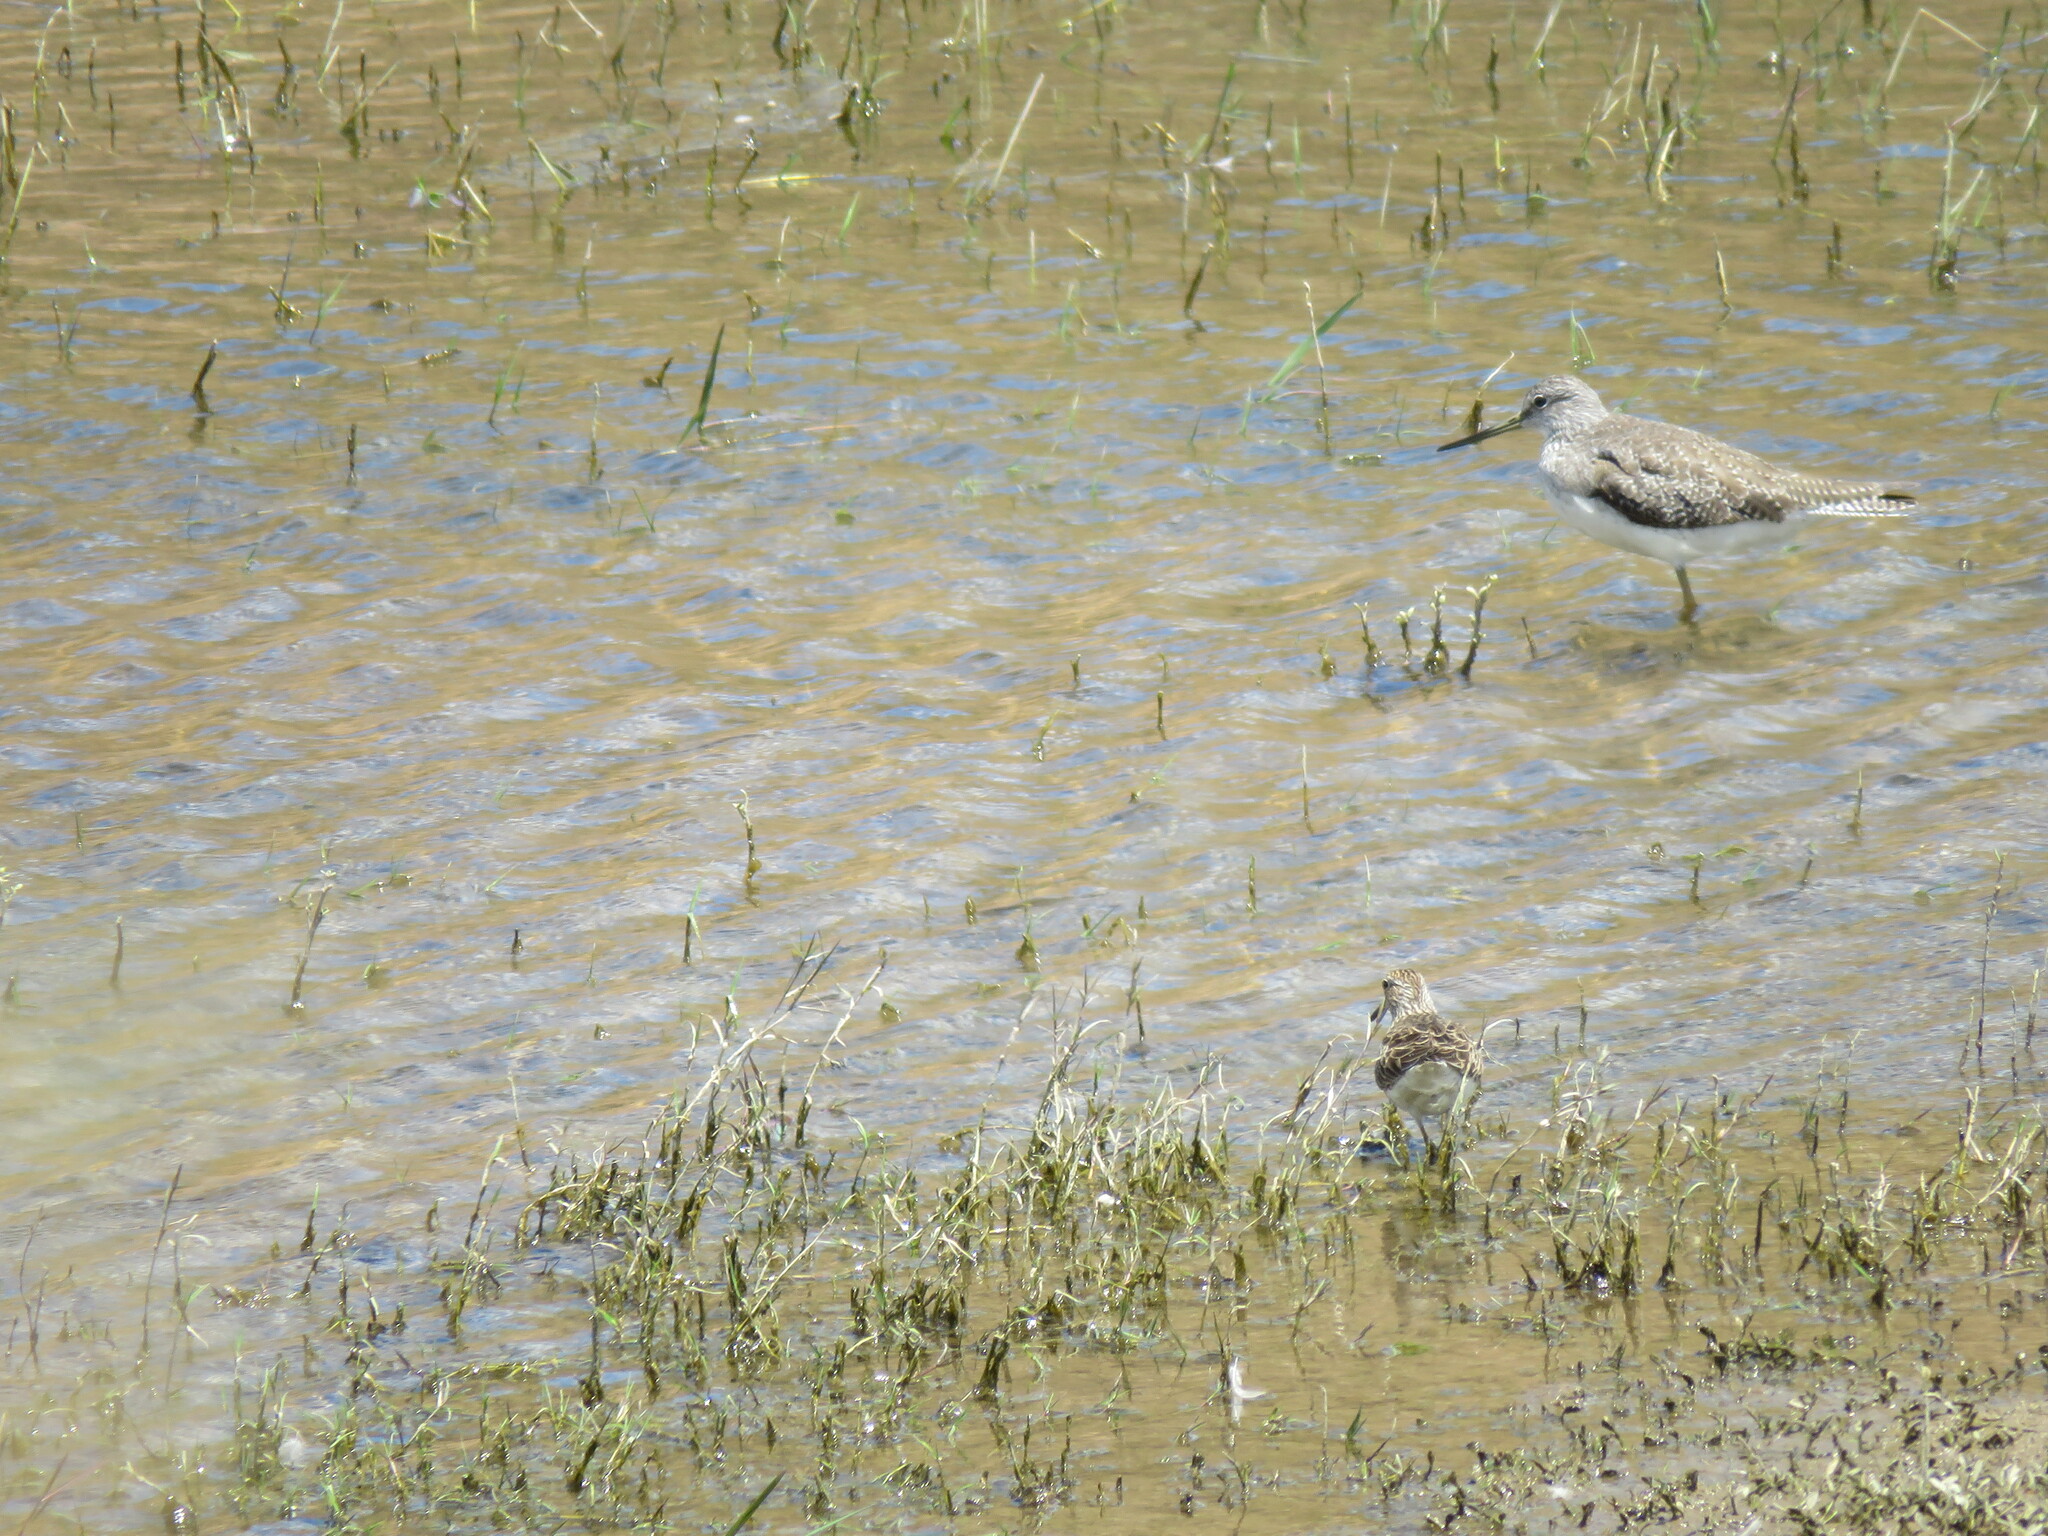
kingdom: Animalia
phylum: Chordata
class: Aves
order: Charadriiformes
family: Scolopacidae
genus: Tringa
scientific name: Tringa melanoleuca
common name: Greater yellowlegs
